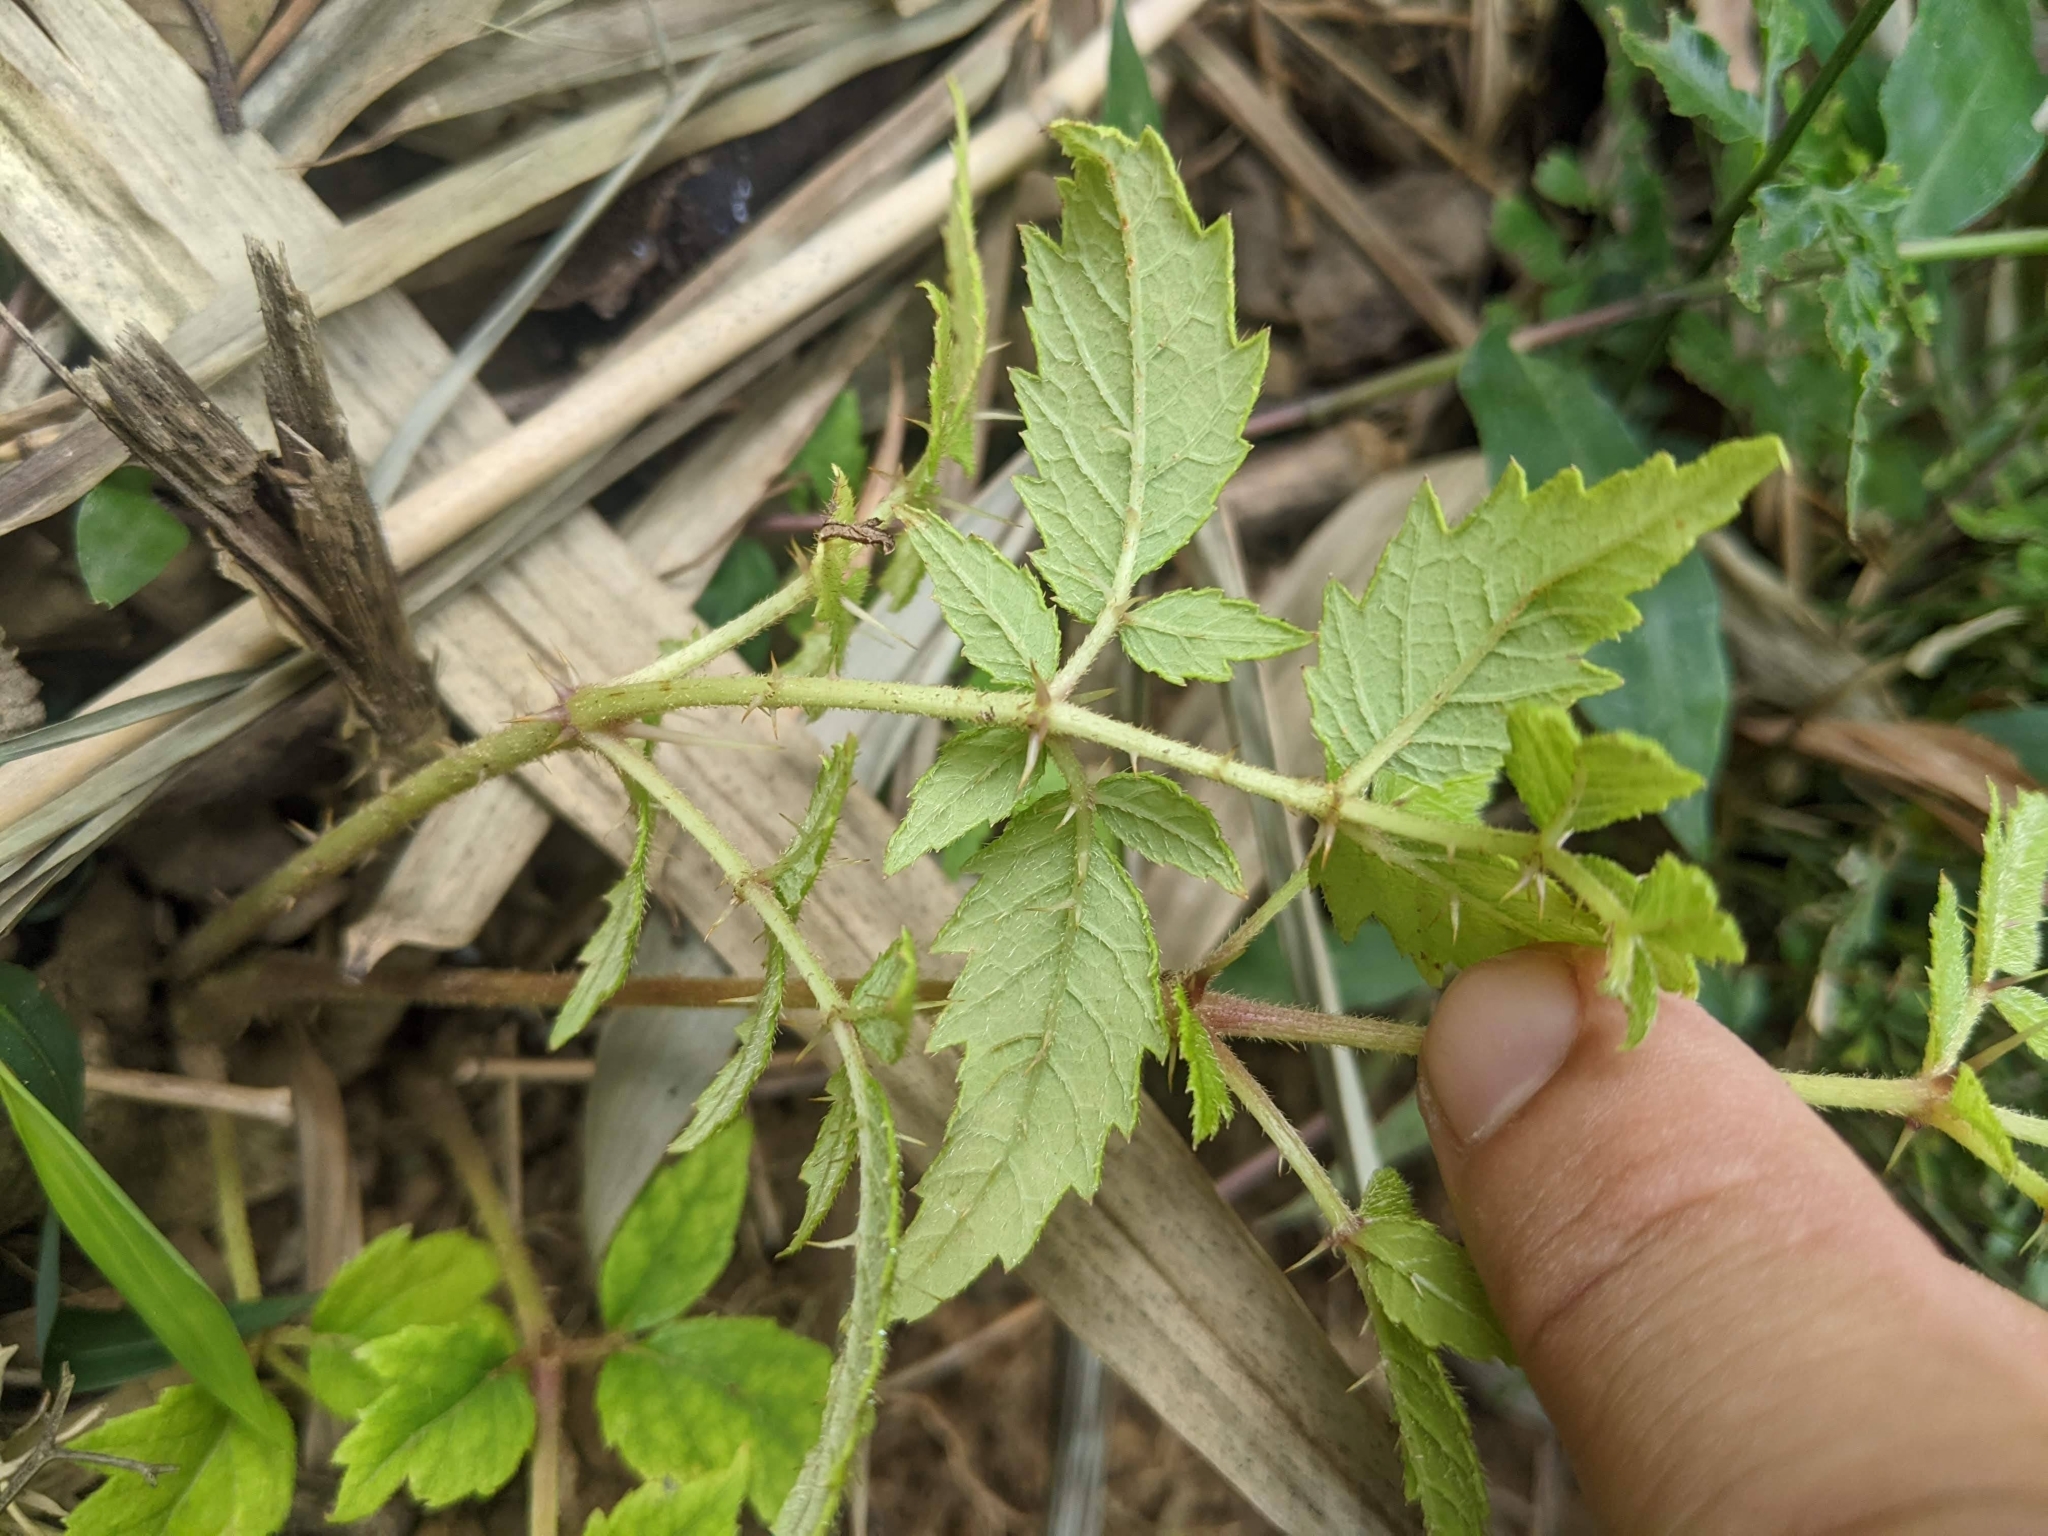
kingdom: Plantae
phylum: Tracheophyta
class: Magnoliopsida
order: Apiales
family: Araliaceae
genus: Aralia
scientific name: Aralia decaisneana
